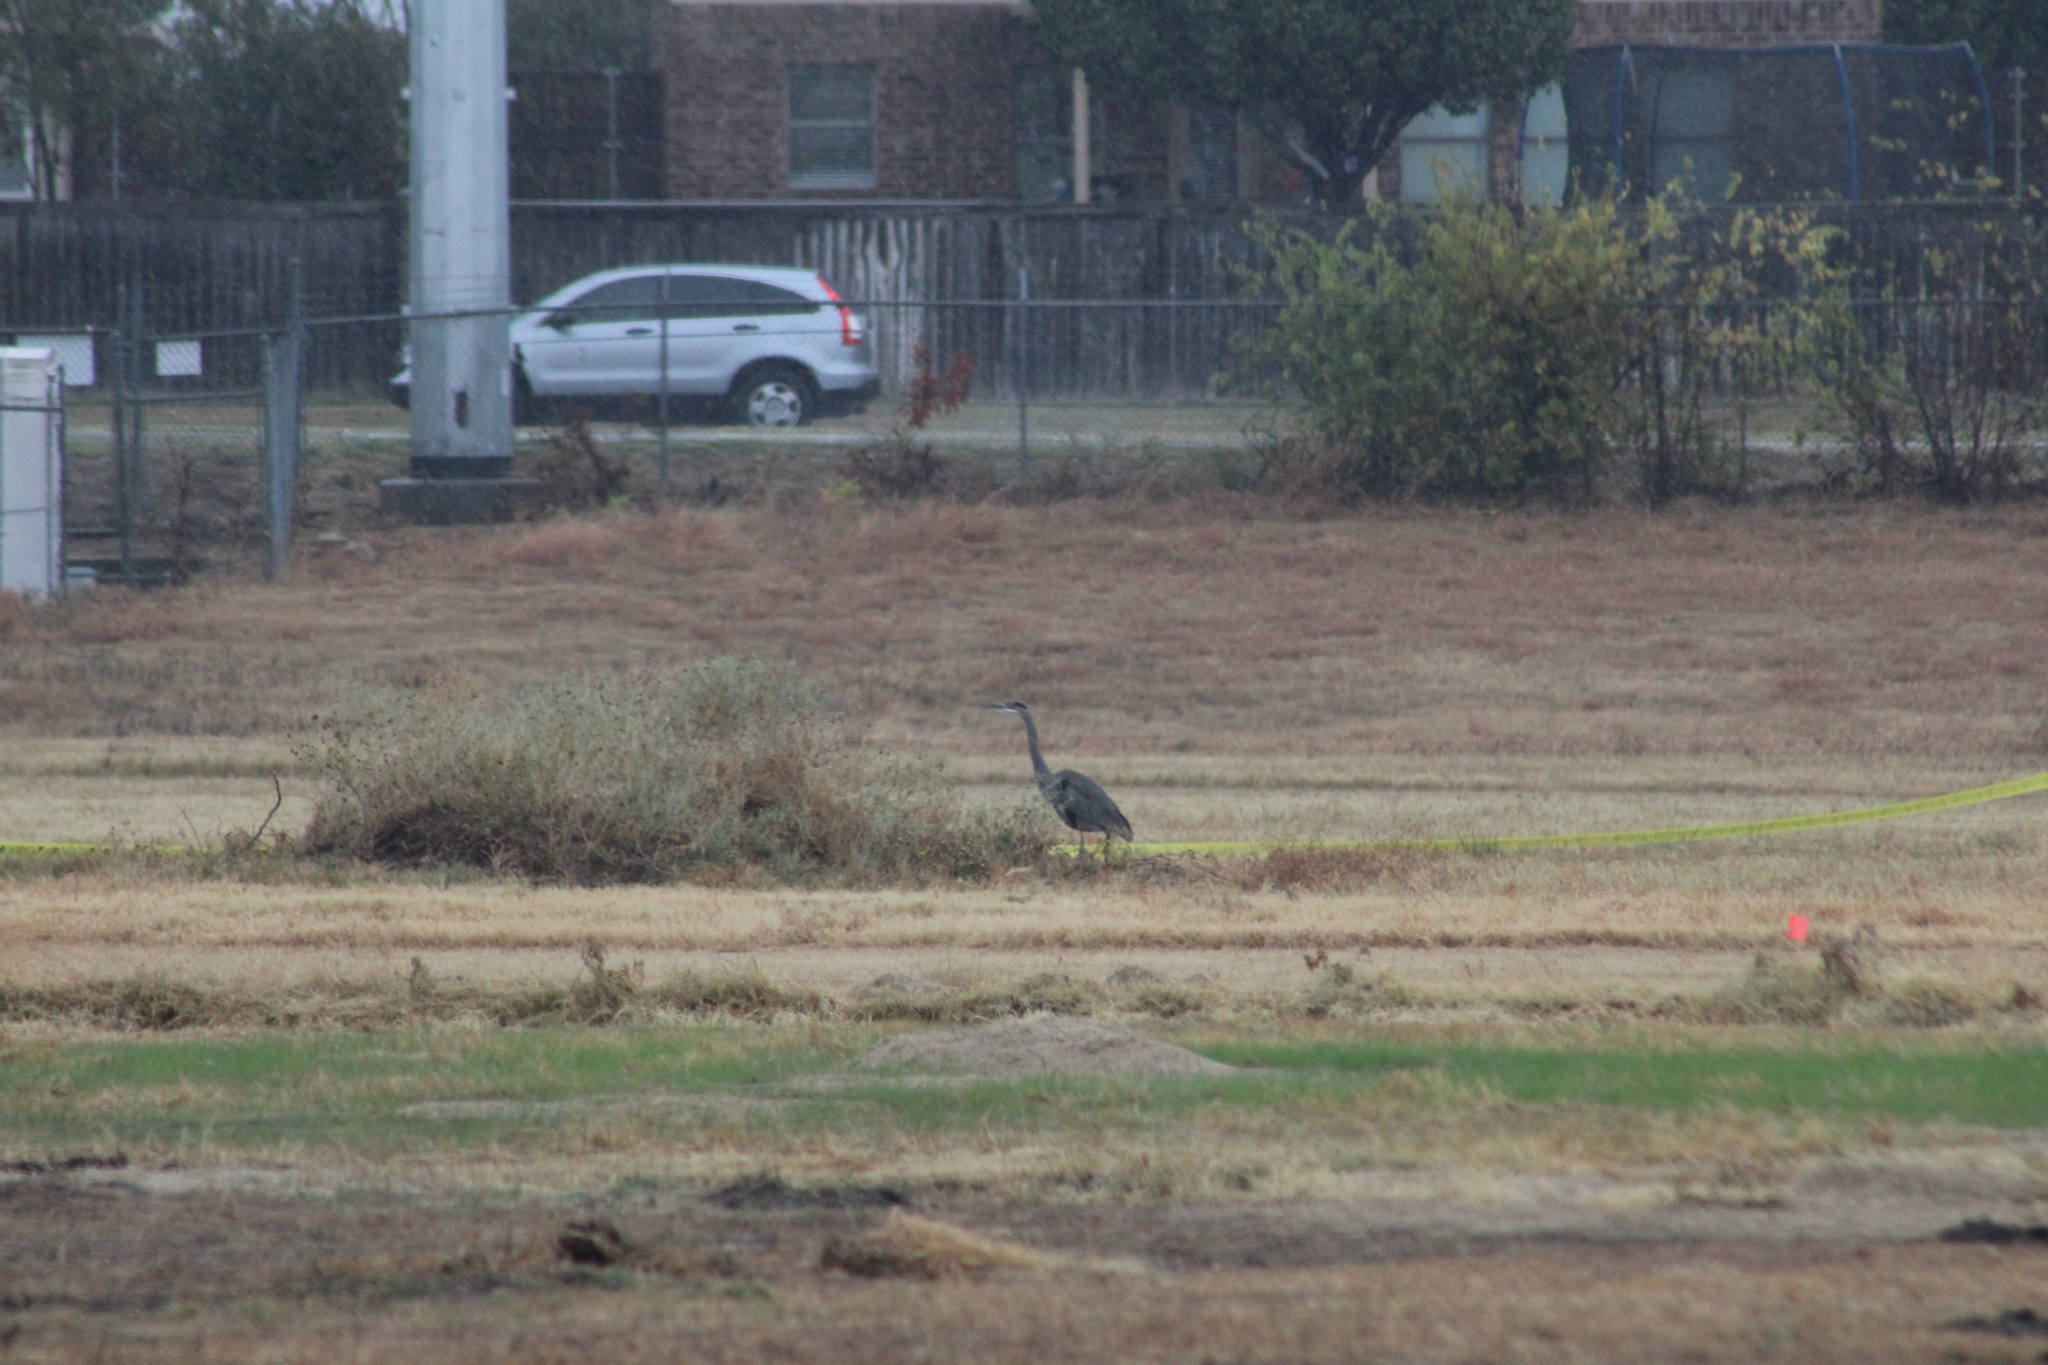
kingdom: Animalia
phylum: Chordata
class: Aves
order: Pelecaniformes
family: Ardeidae
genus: Ardea
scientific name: Ardea herodias
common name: Great blue heron
